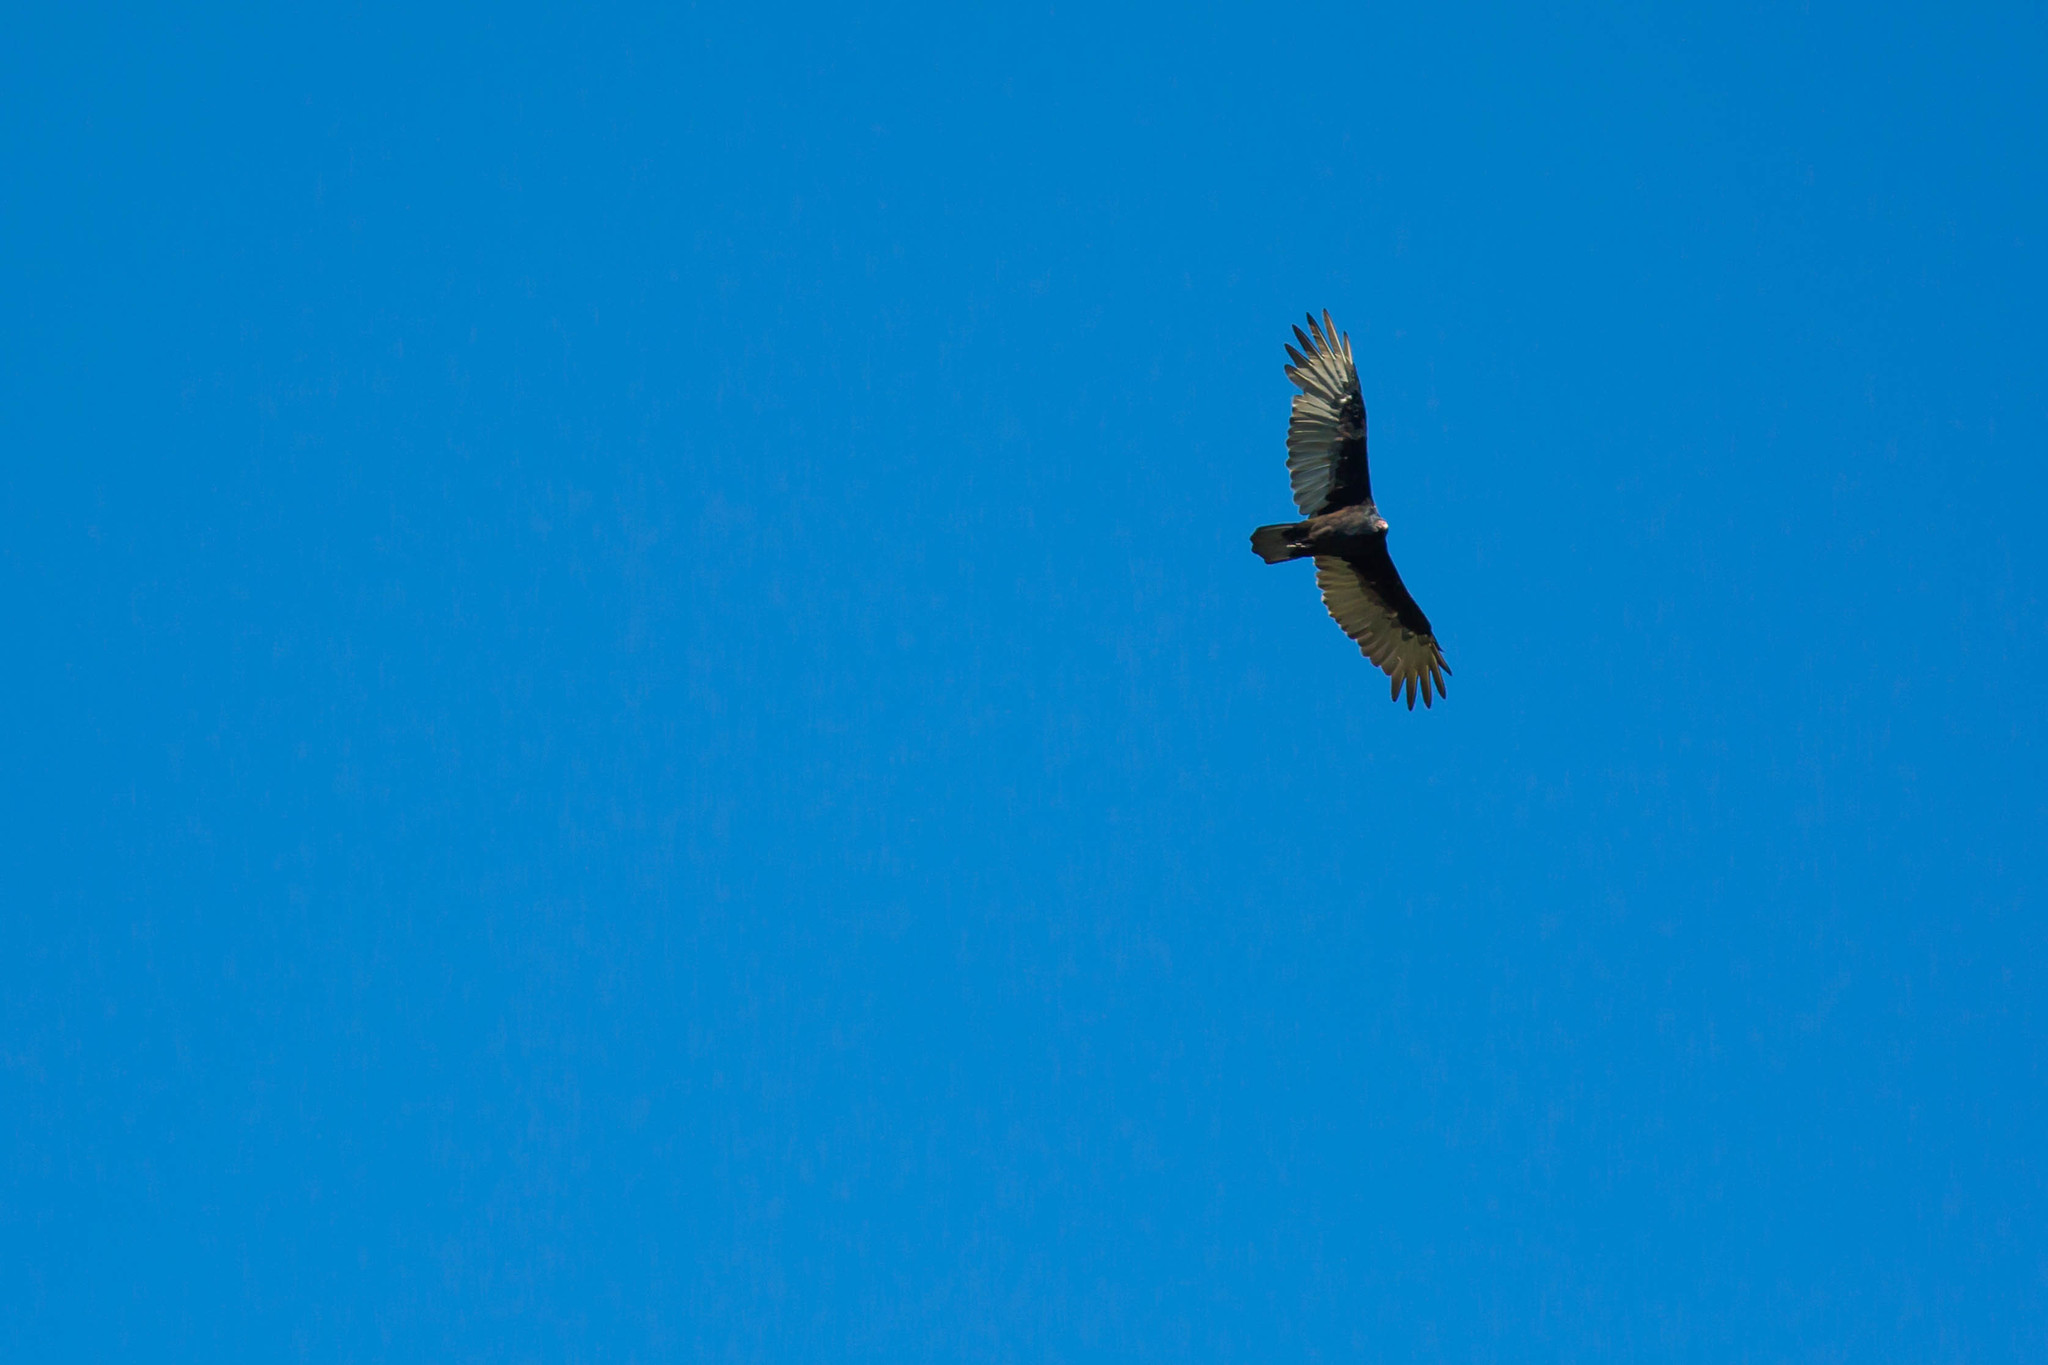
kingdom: Animalia
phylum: Chordata
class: Aves
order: Accipitriformes
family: Cathartidae
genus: Cathartes
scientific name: Cathartes aura
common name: Turkey vulture
